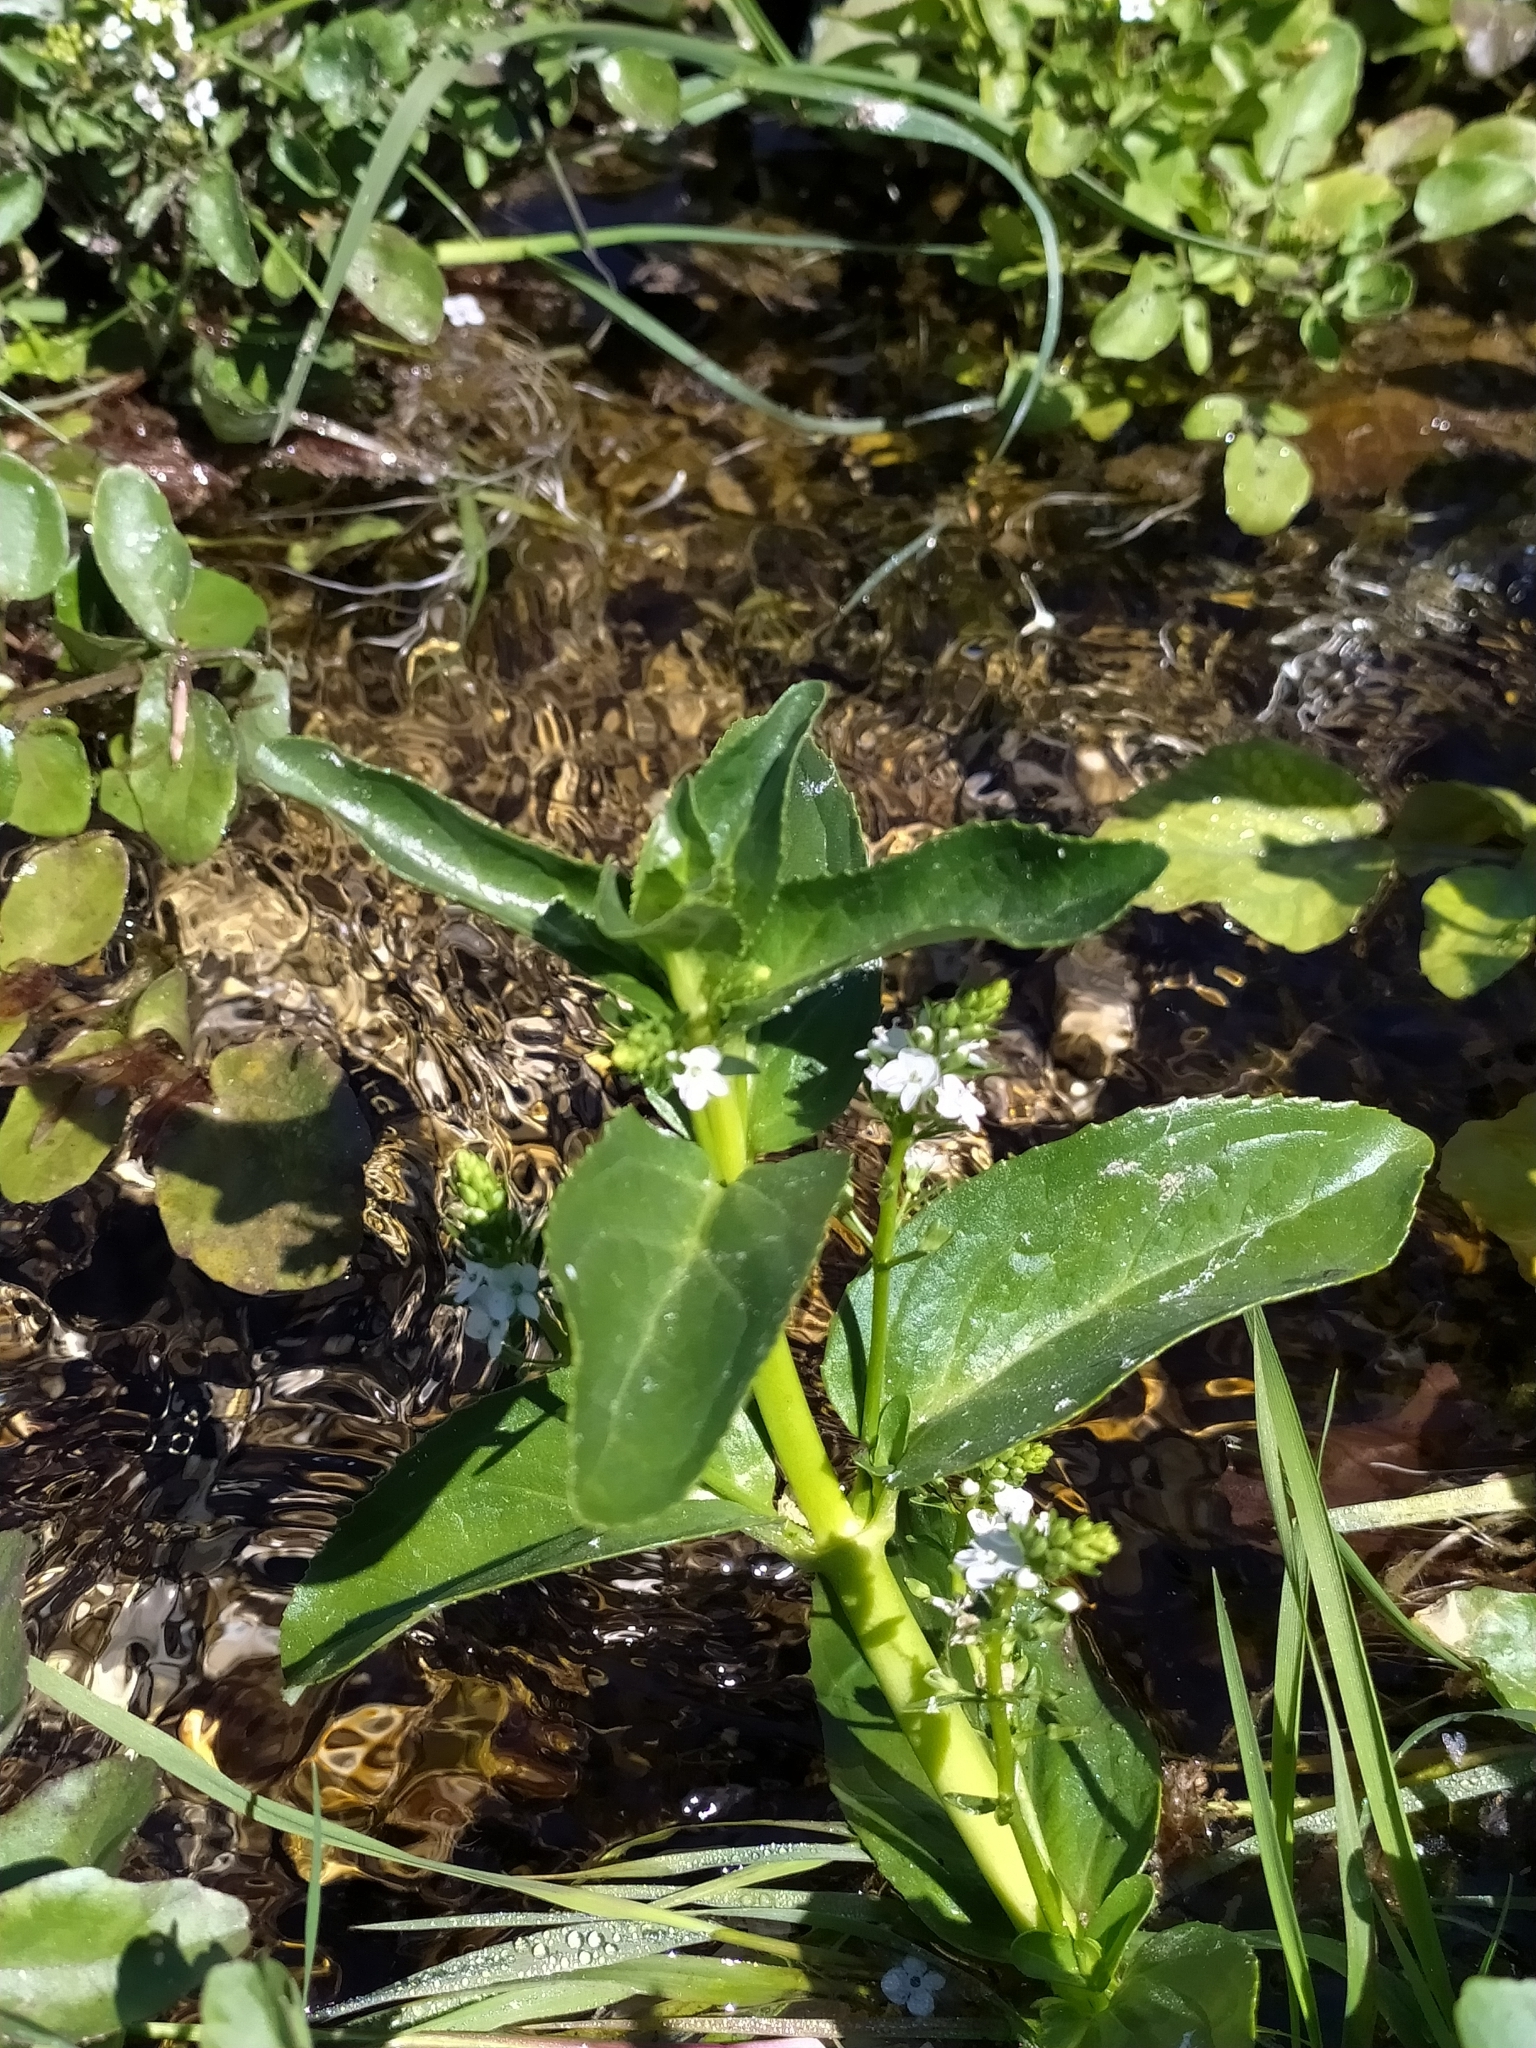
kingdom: Plantae
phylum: Tracheophyta
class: Magnoliopsida
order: Lamiales
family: Plantaginaceae
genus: Veronica
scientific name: Veronica beccabunga
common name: Brooklime
